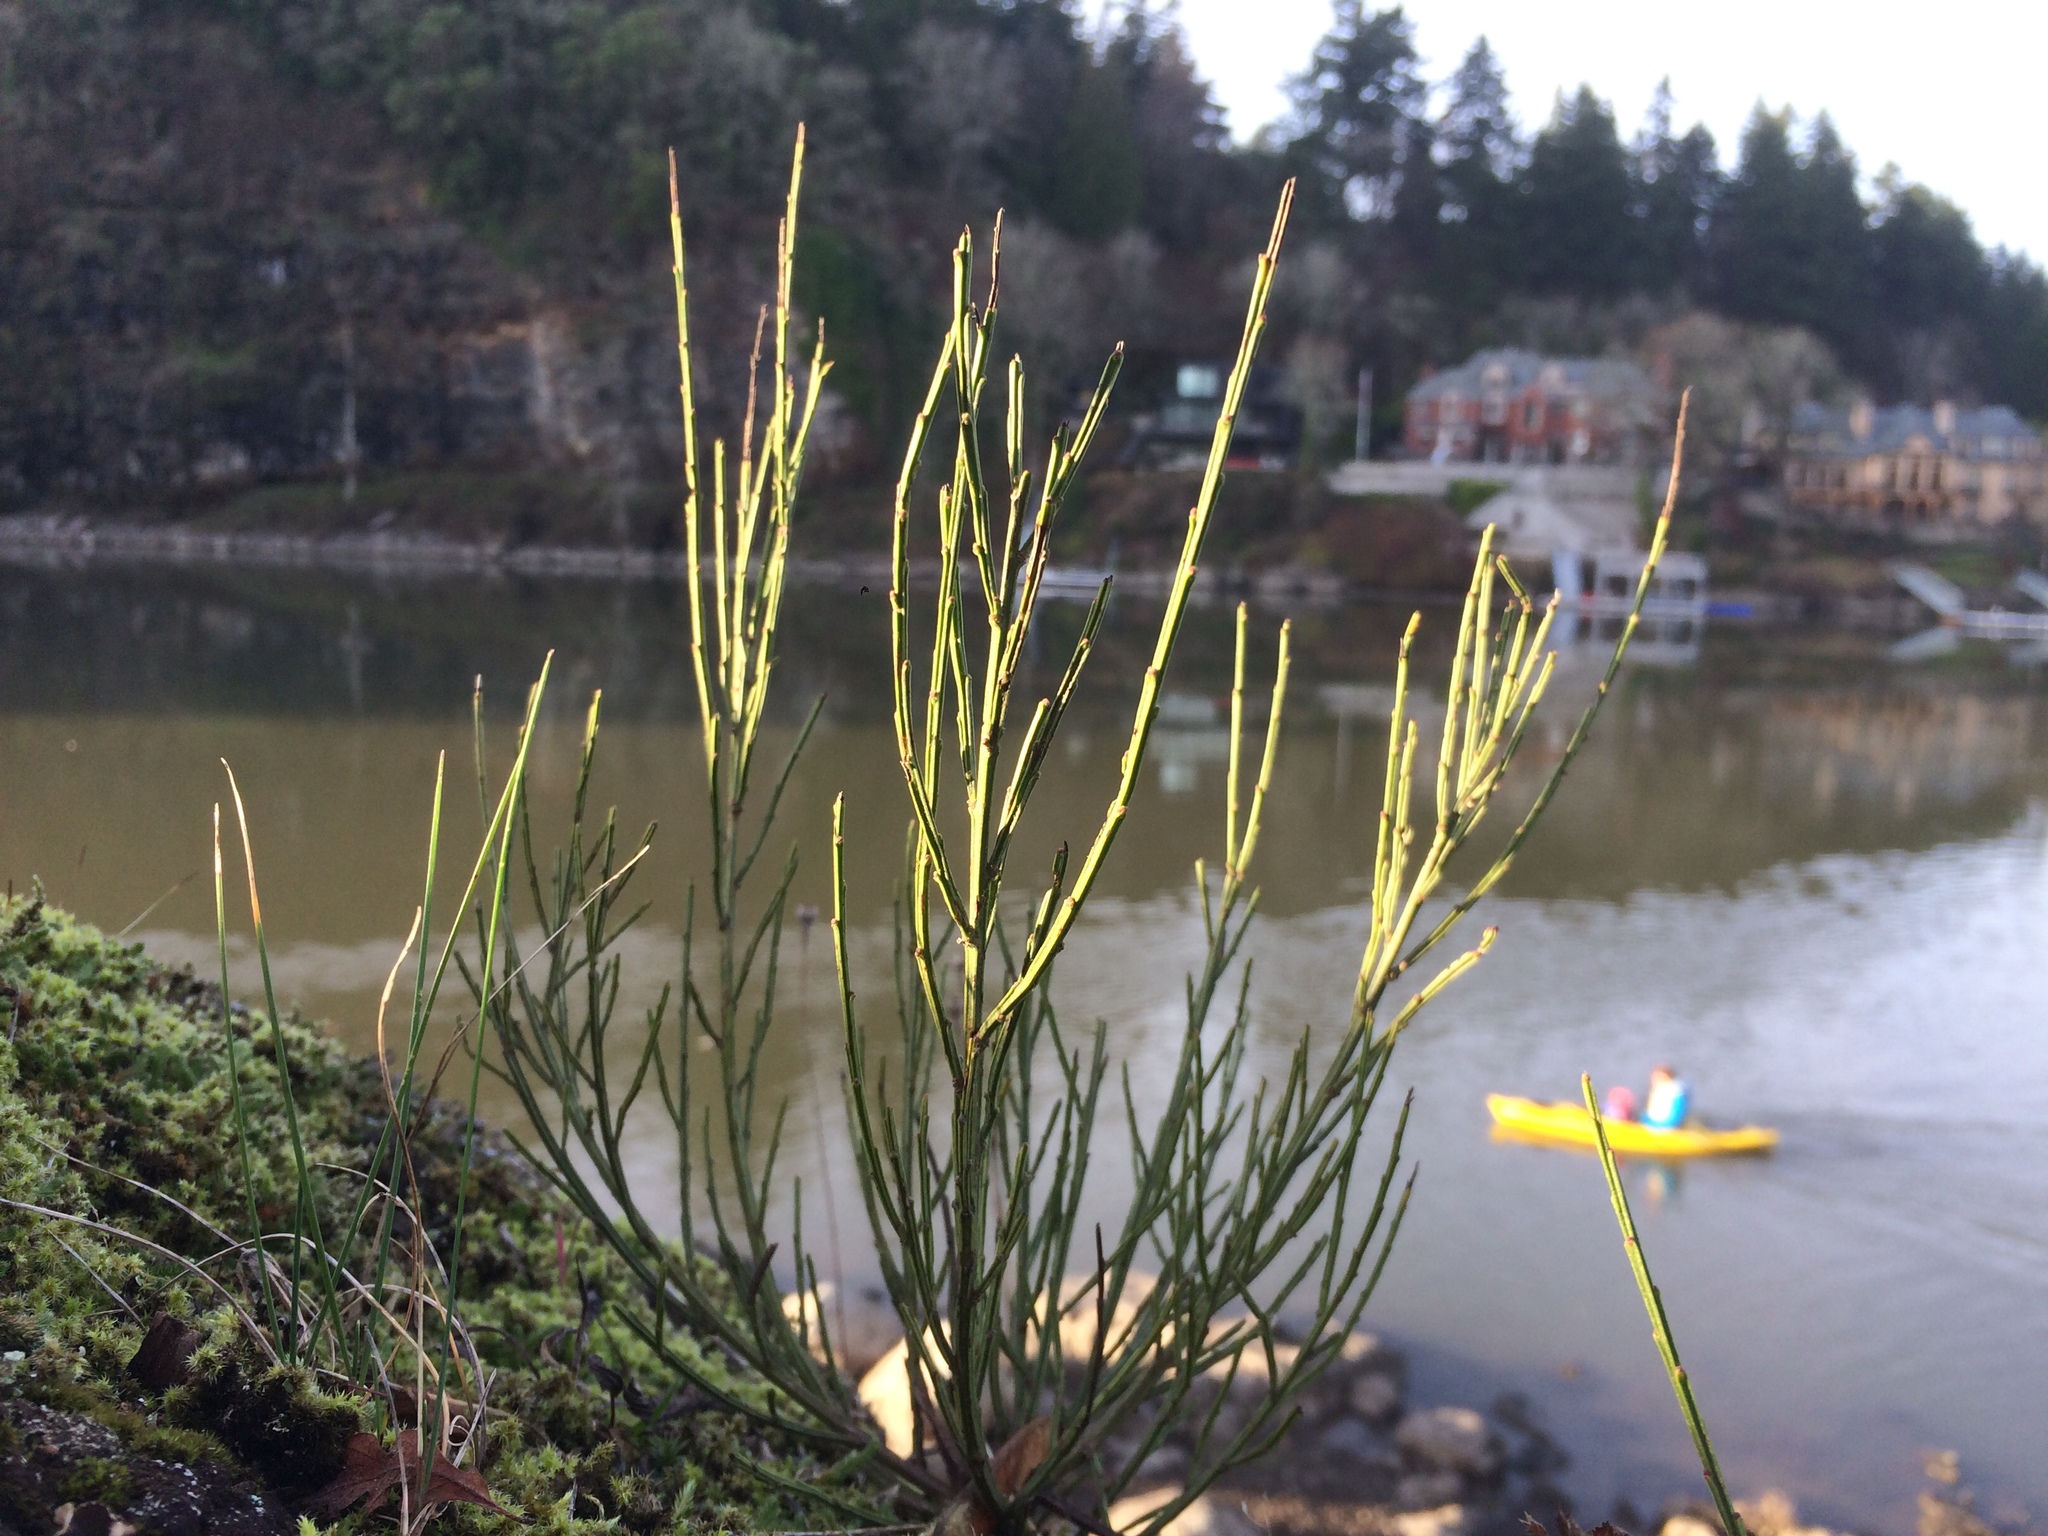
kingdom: Plantae
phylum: Tracheophyta
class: Magnoliopsida
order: Fabales
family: Fabaceae
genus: Cytisus
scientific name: Cytisus scoparius
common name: Scotch broom
